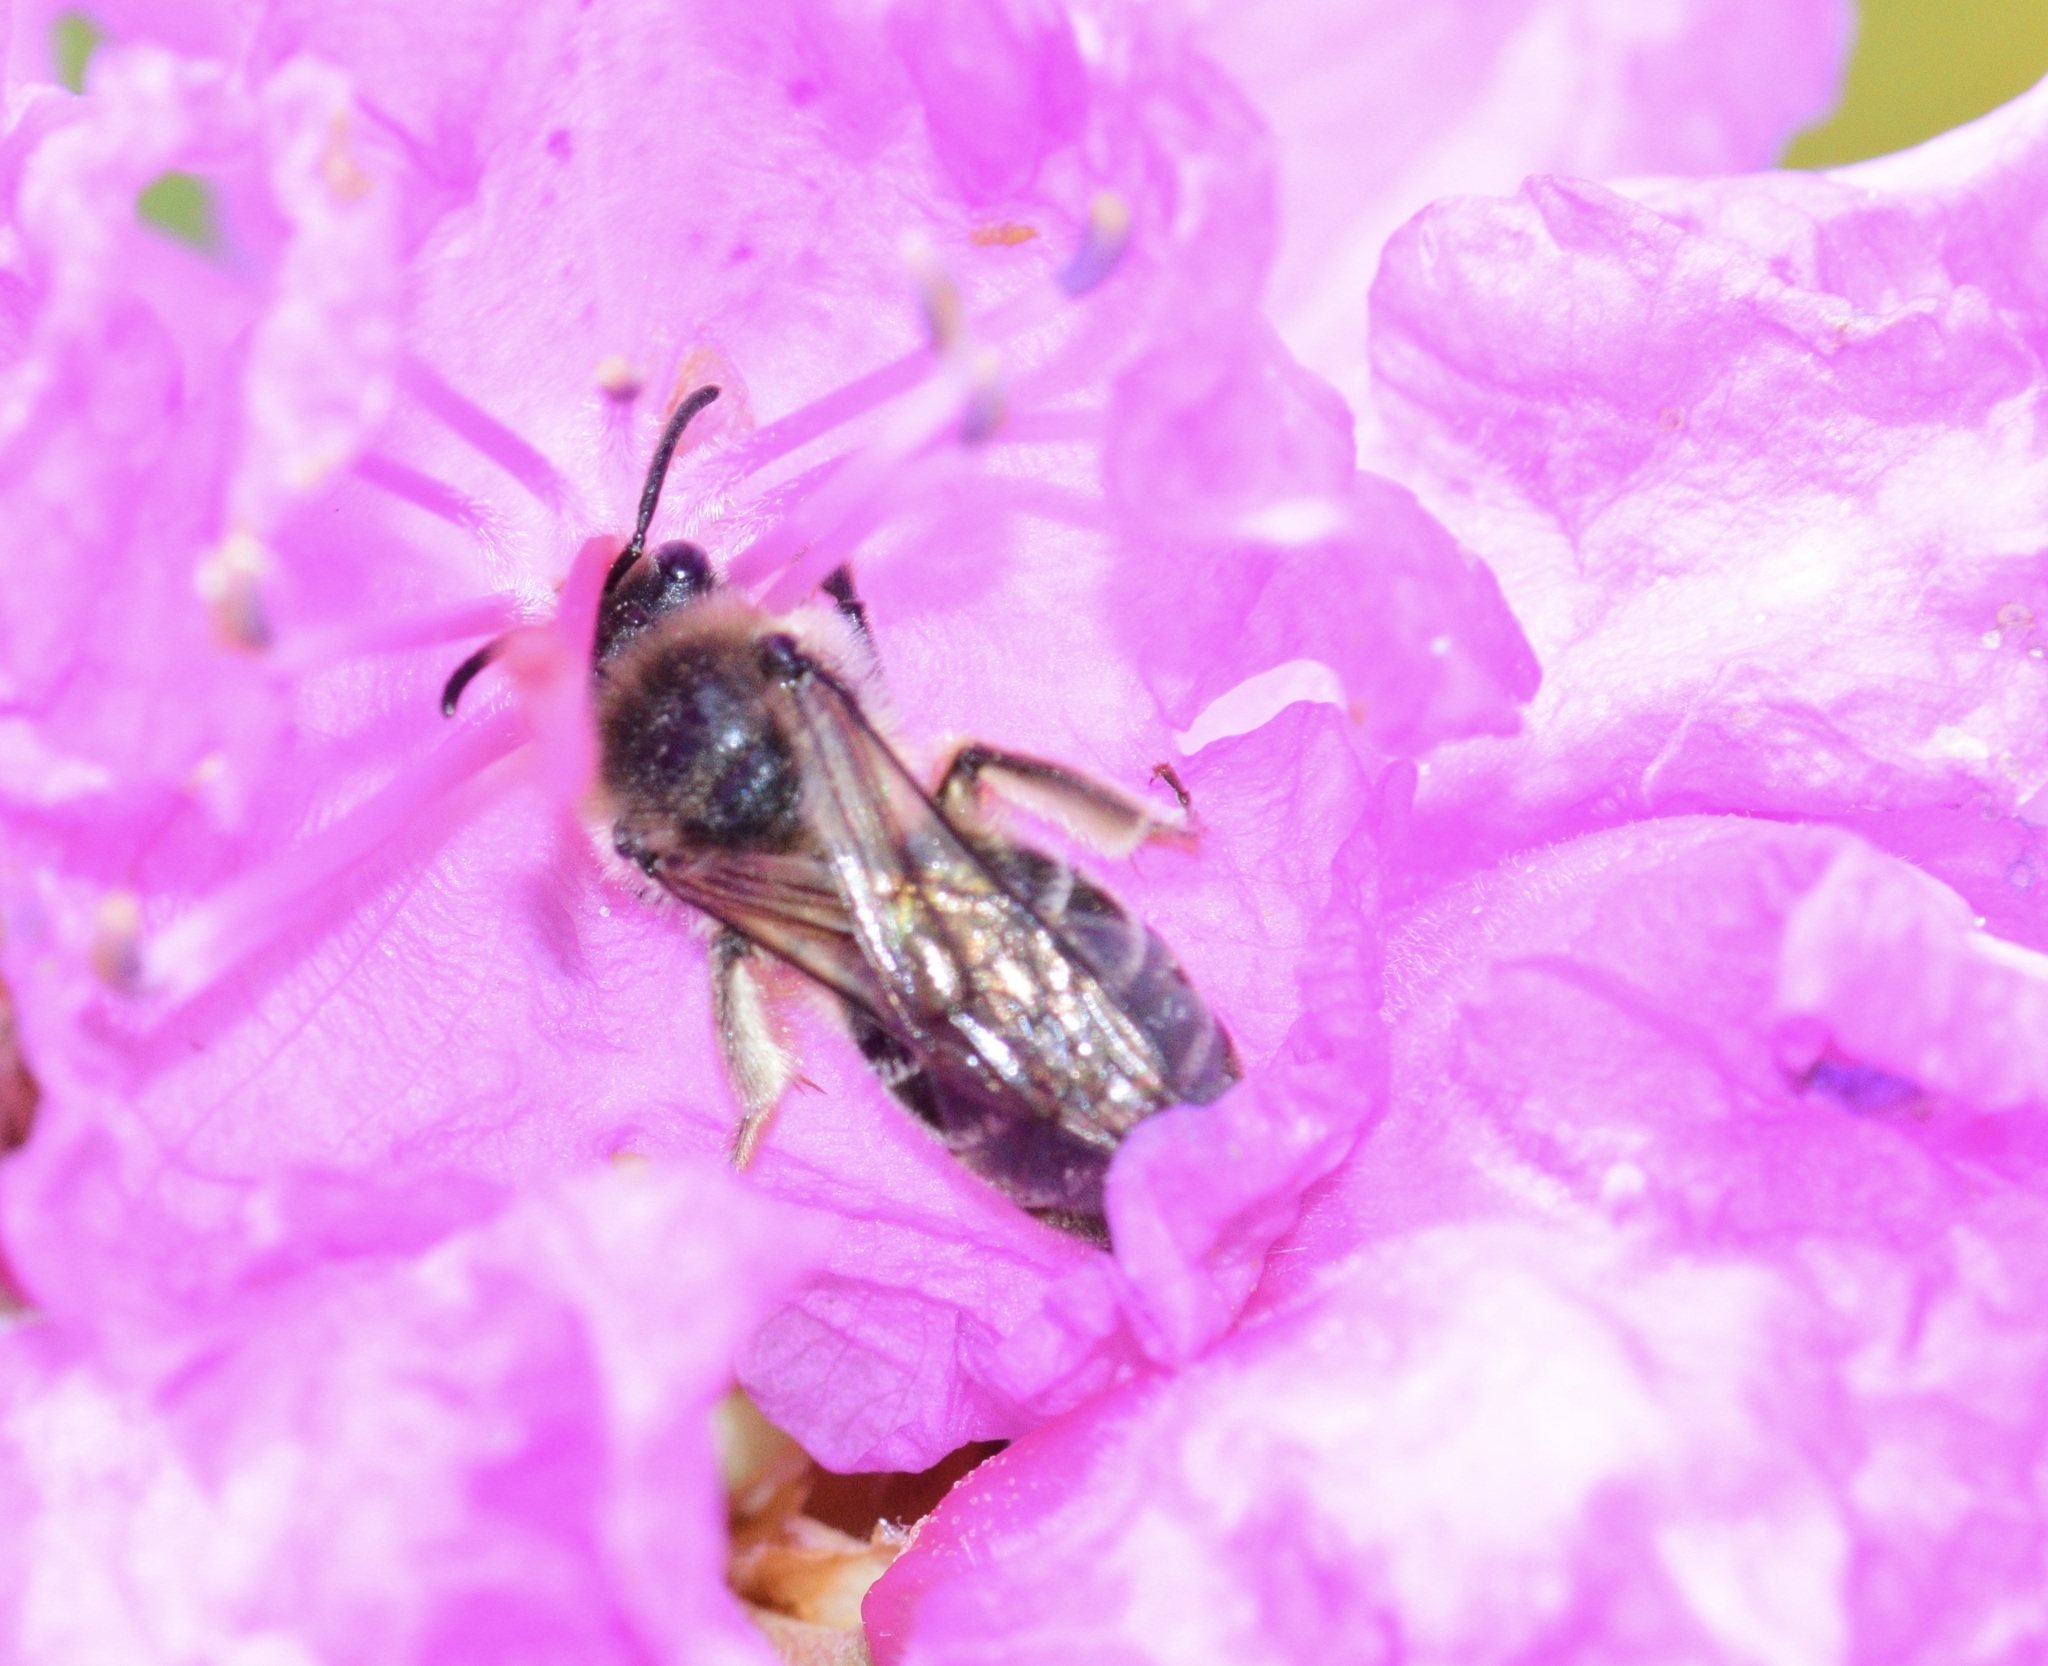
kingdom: Animalia
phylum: Arthropoda
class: Insecta
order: Hymenoptera
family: Colletidae
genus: Colletes
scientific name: Colletes inaequalis
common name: Unequal cellophane bee
